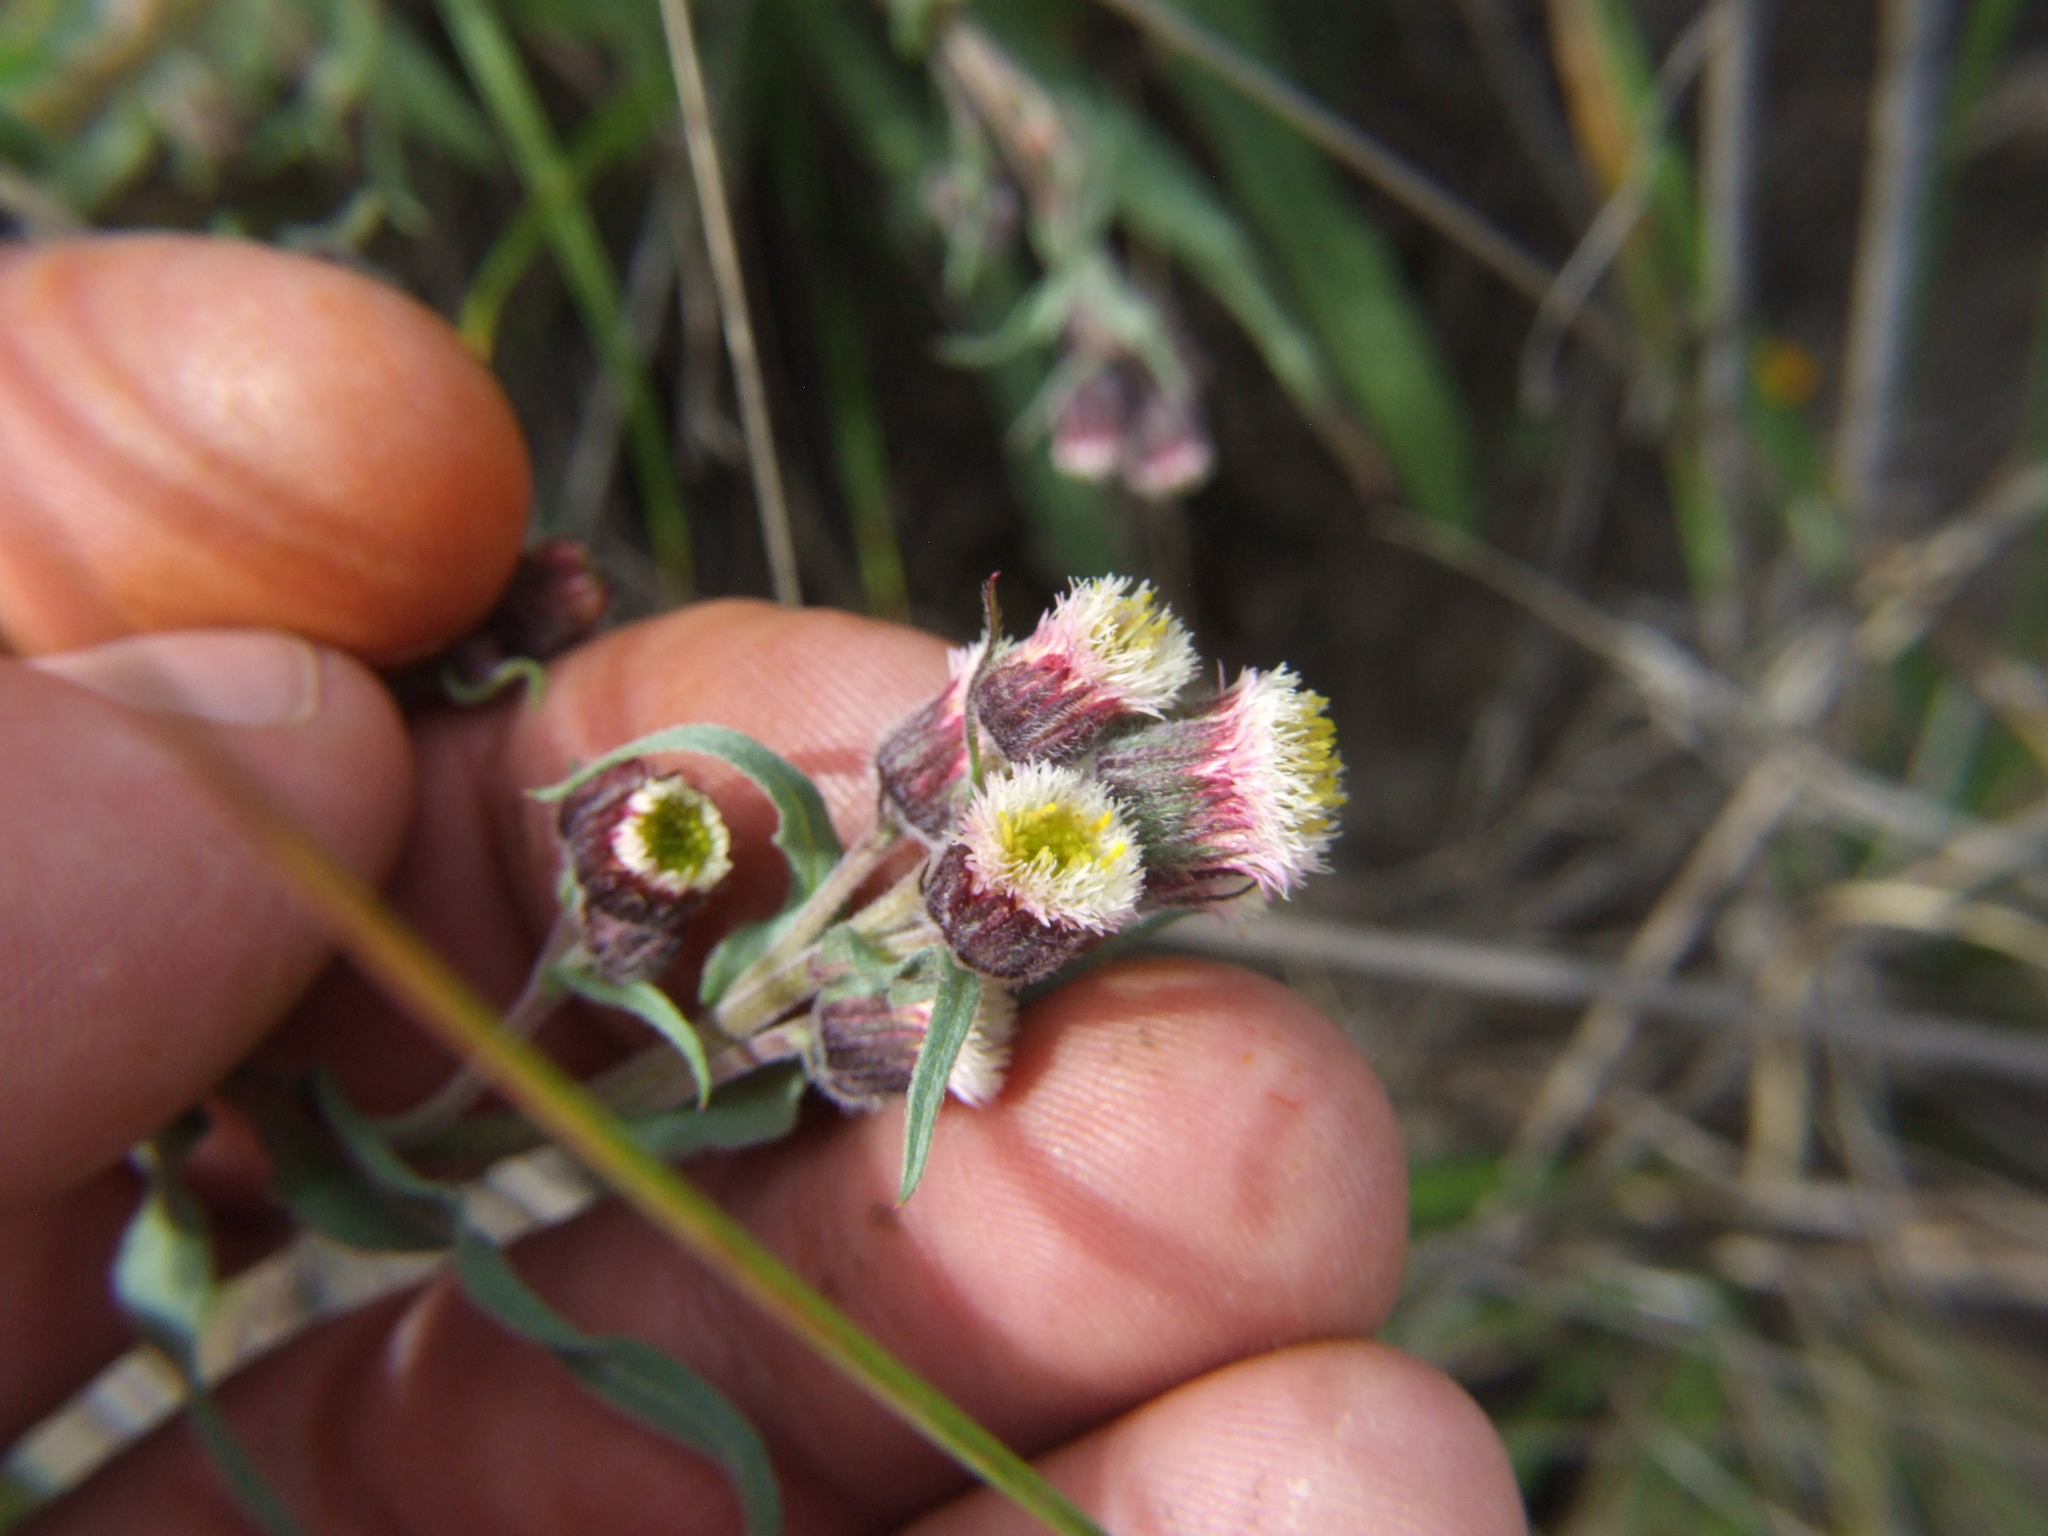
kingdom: Plantae
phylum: Tracheophyta
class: Magnoliopsida
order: Asterales
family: Asteraceae
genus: Erigeron
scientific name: Erigeron deserticolus
